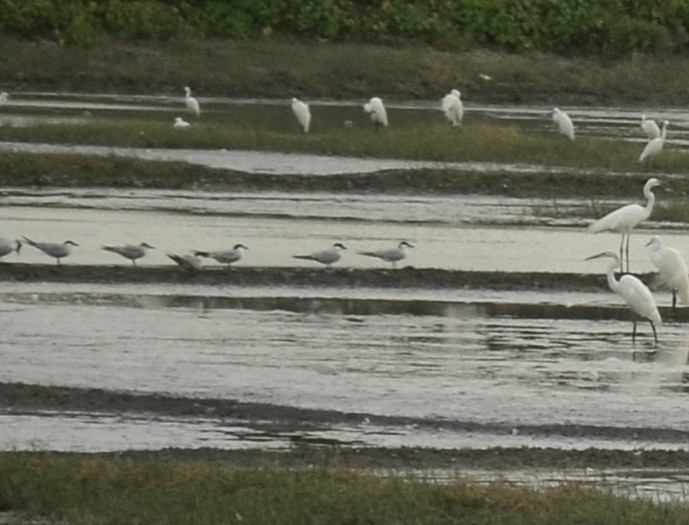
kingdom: Animalia
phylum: Chordata
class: Aves
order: Charadriiformes
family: Laridae
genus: Chlidonias
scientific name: Chlidonias hybrida
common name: Whiskered tern
